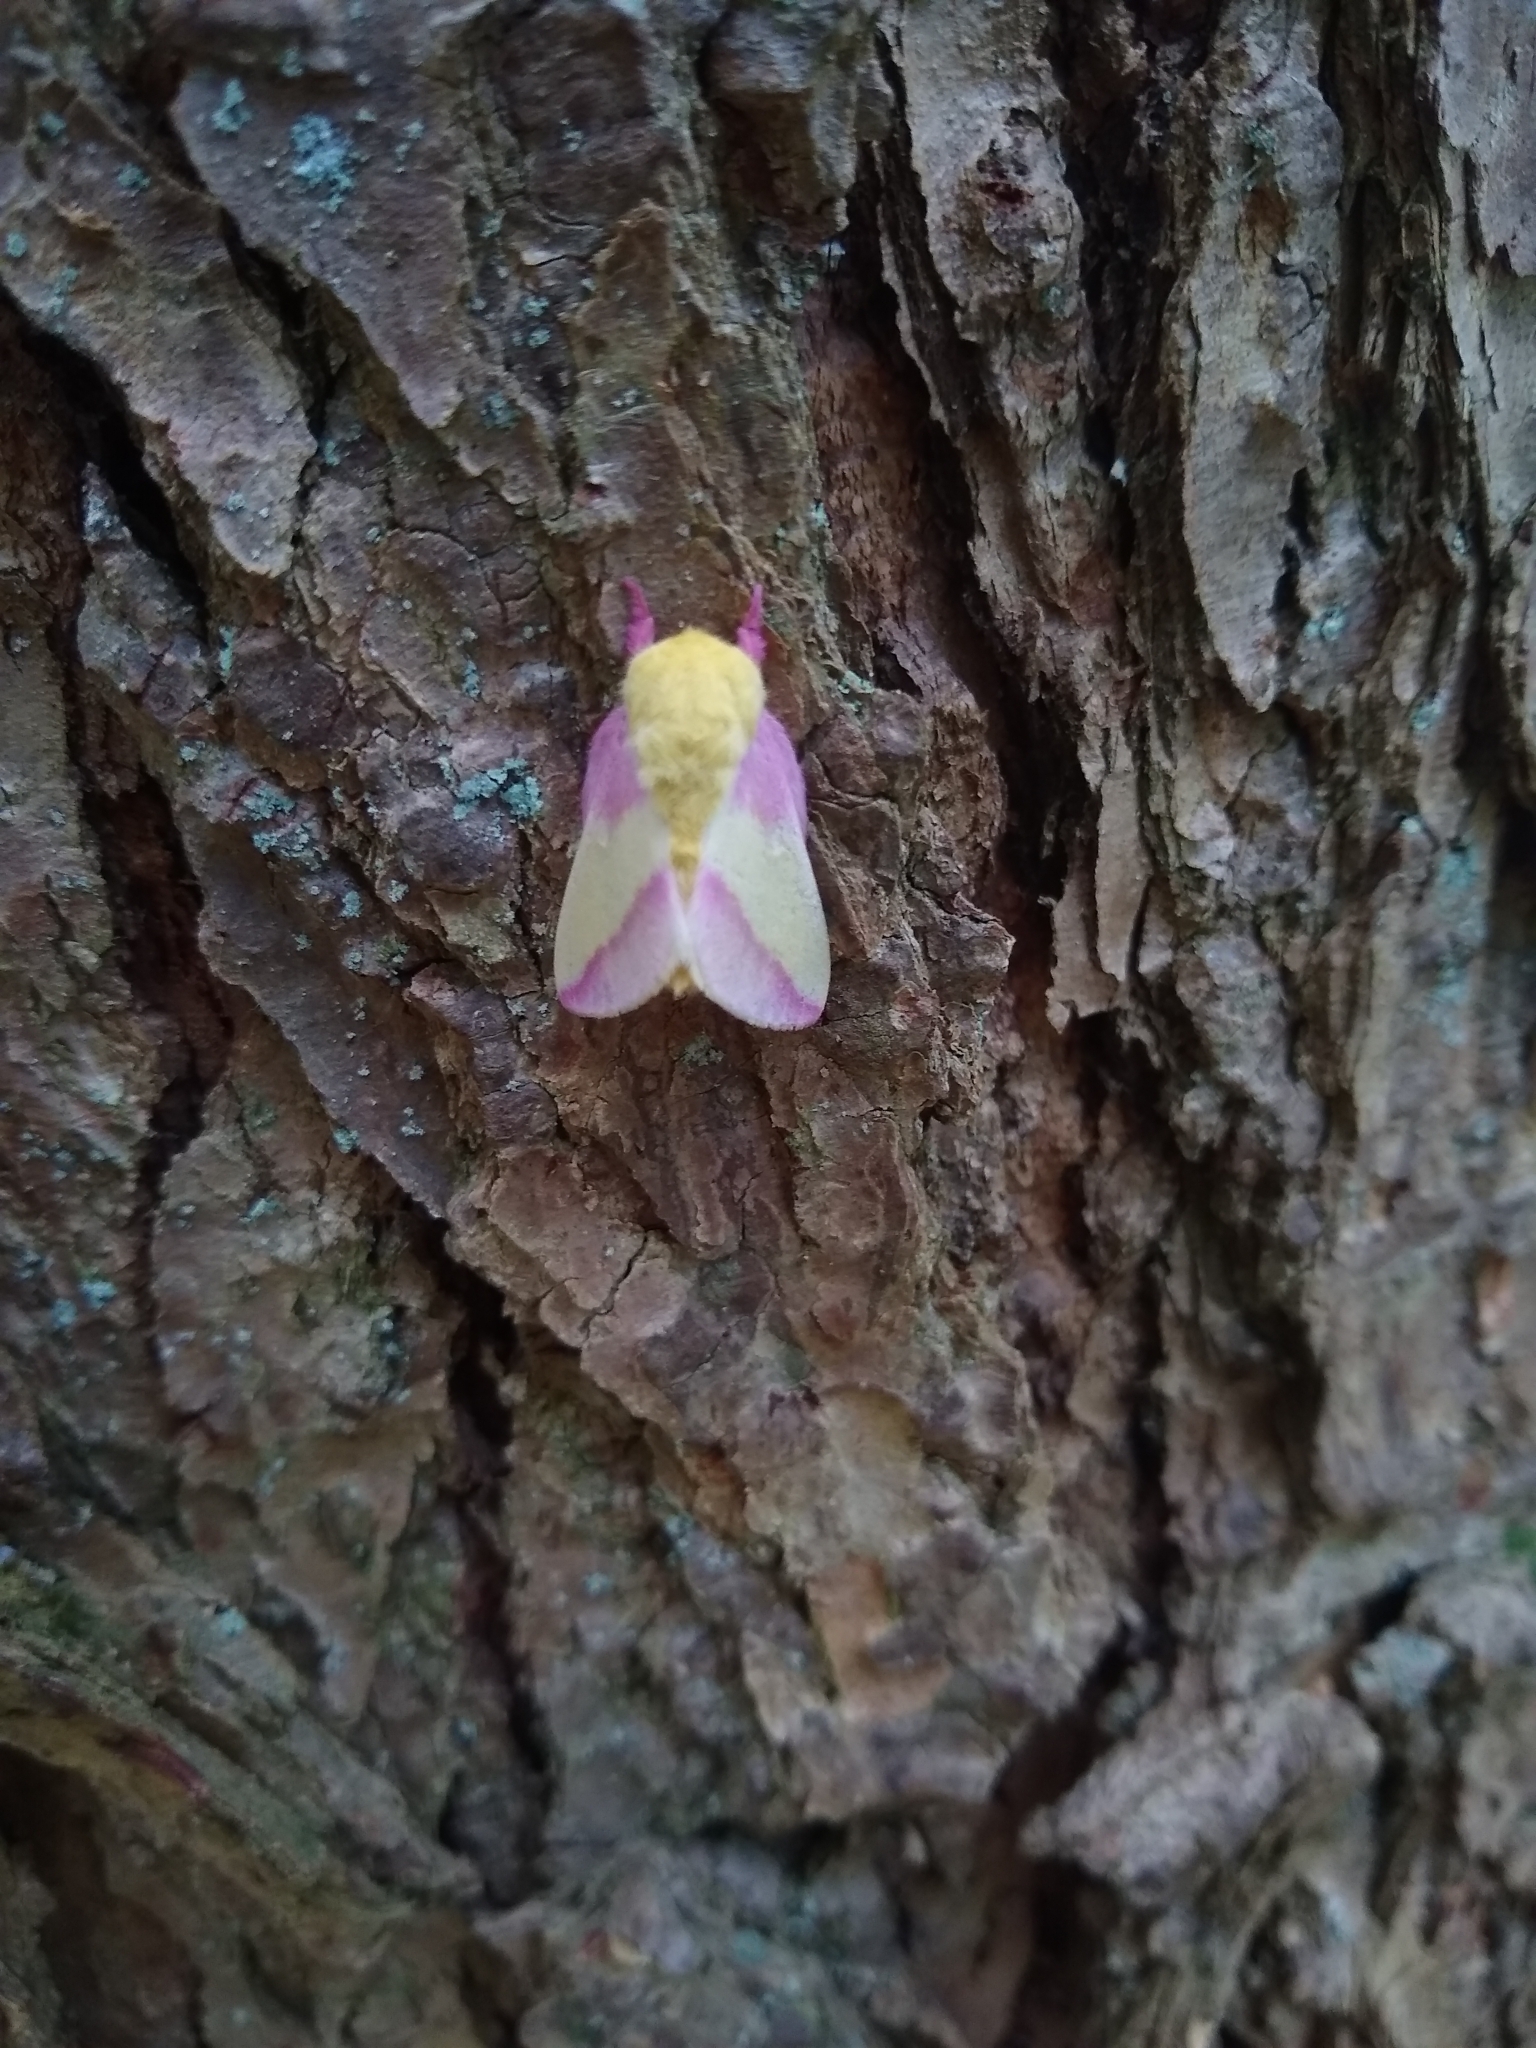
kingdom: Animalia
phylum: Arthropoda
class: Insecta
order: Lepidoptera
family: Saturniidae
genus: Dryocampa
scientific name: Dryocampa rubicunda
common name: Rosy maple moth
